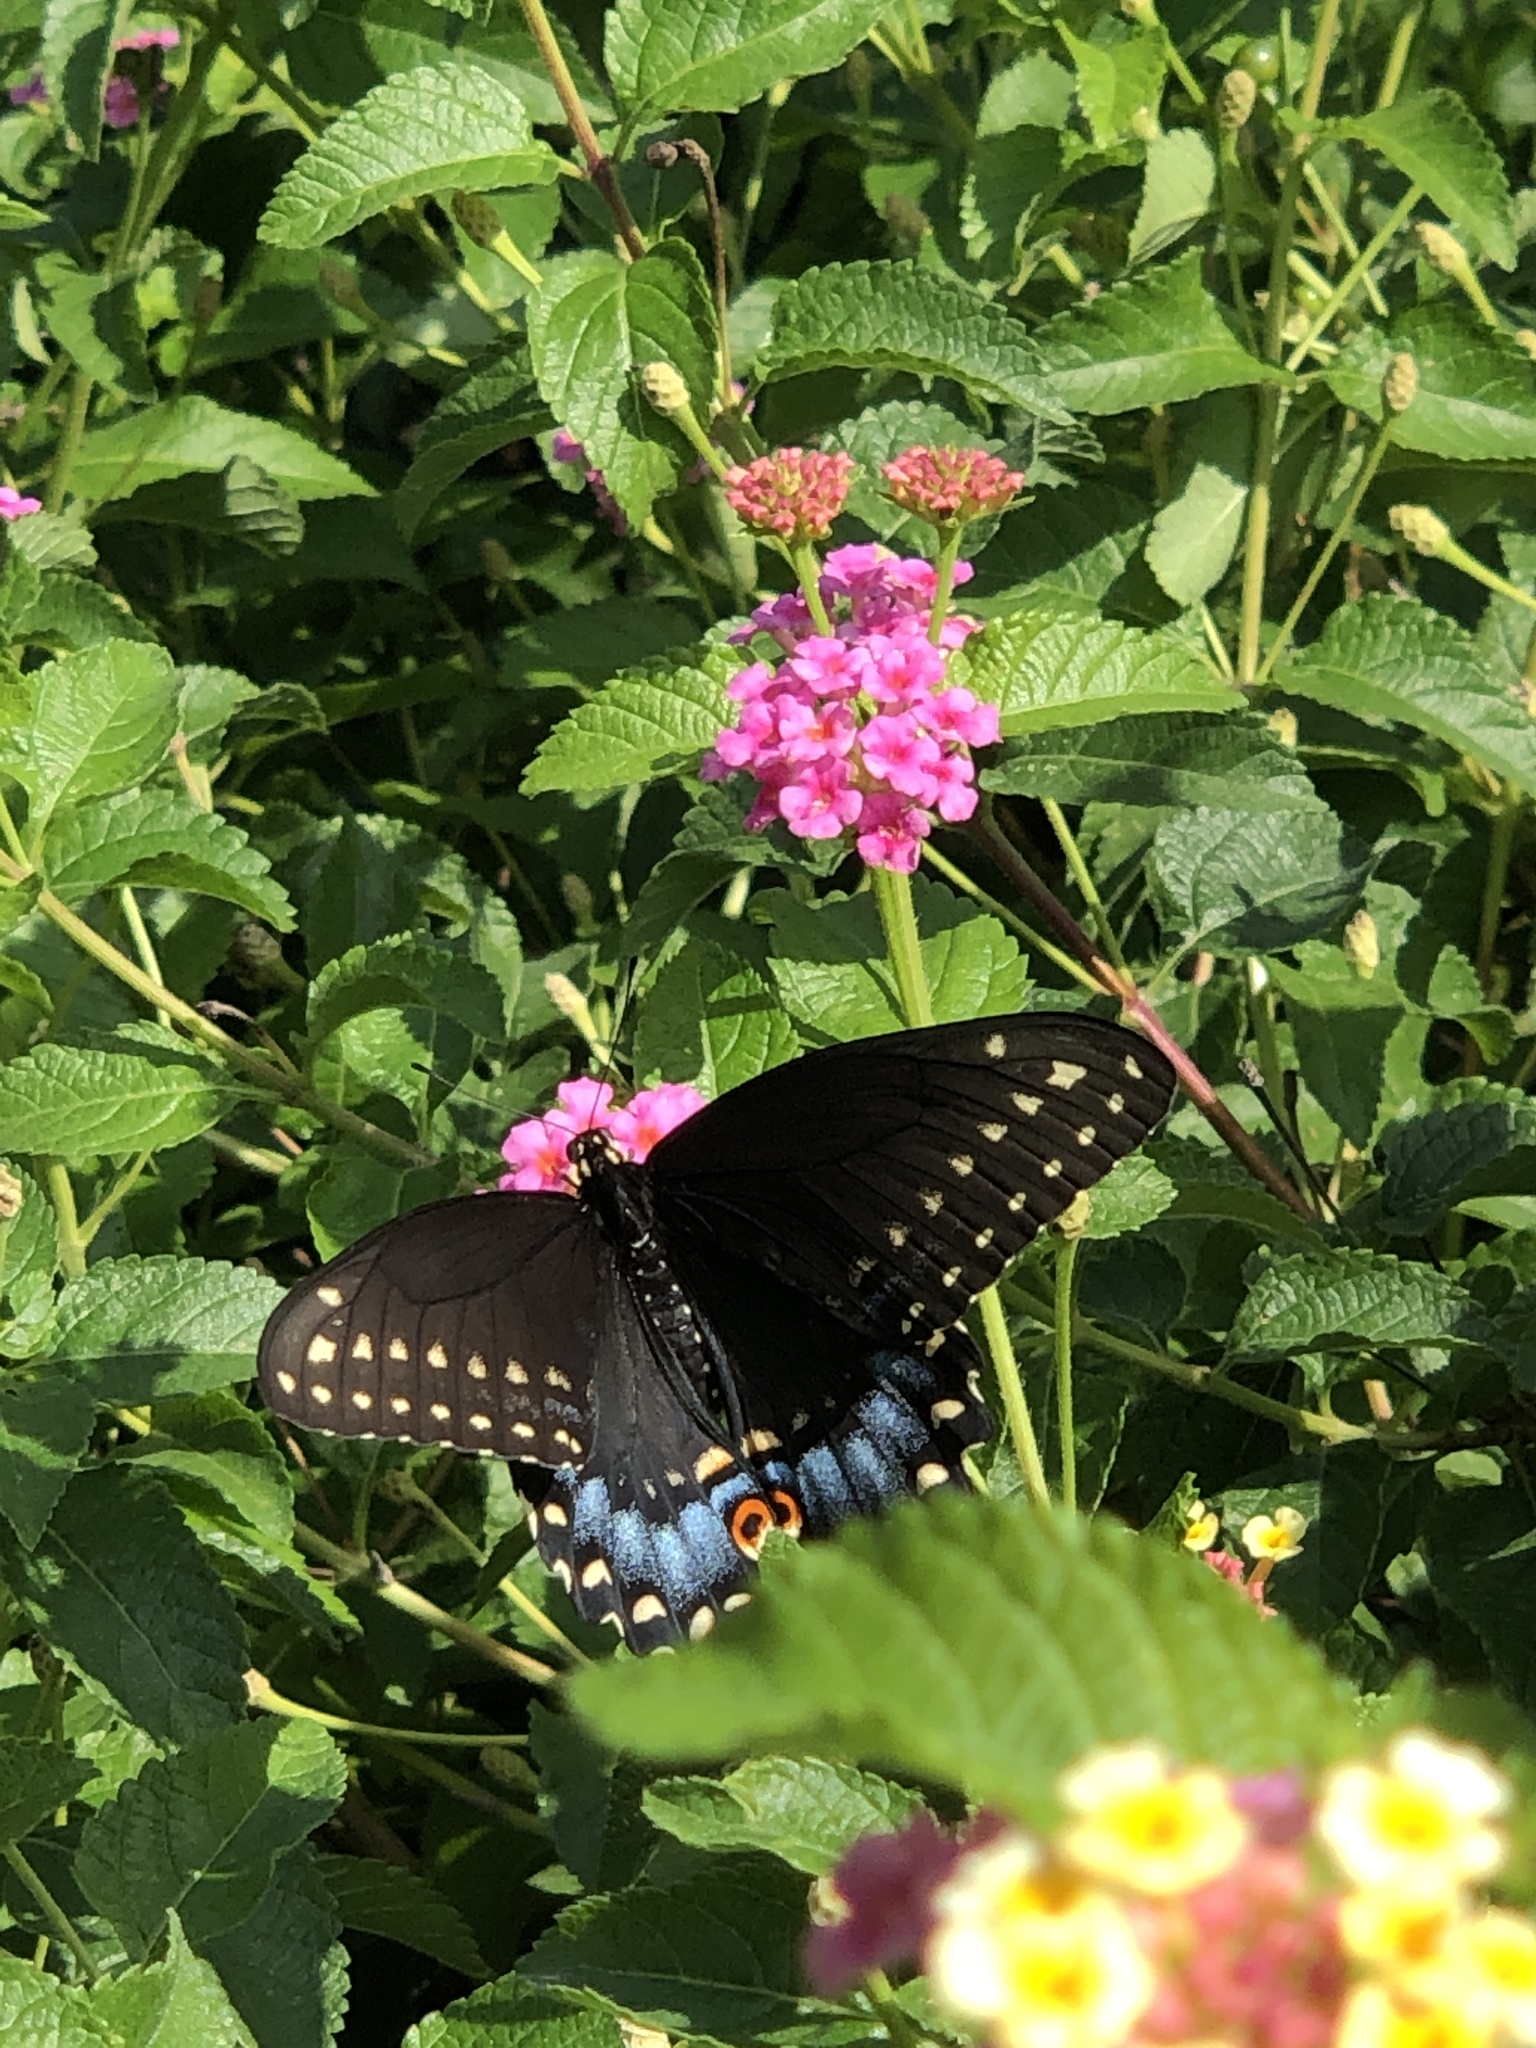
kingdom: Animalia
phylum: Arthropoda
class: Insecta
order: Lepidoptera
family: Papilionidae
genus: Papilio
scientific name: Papilio polyxenes
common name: Black swallowtail
